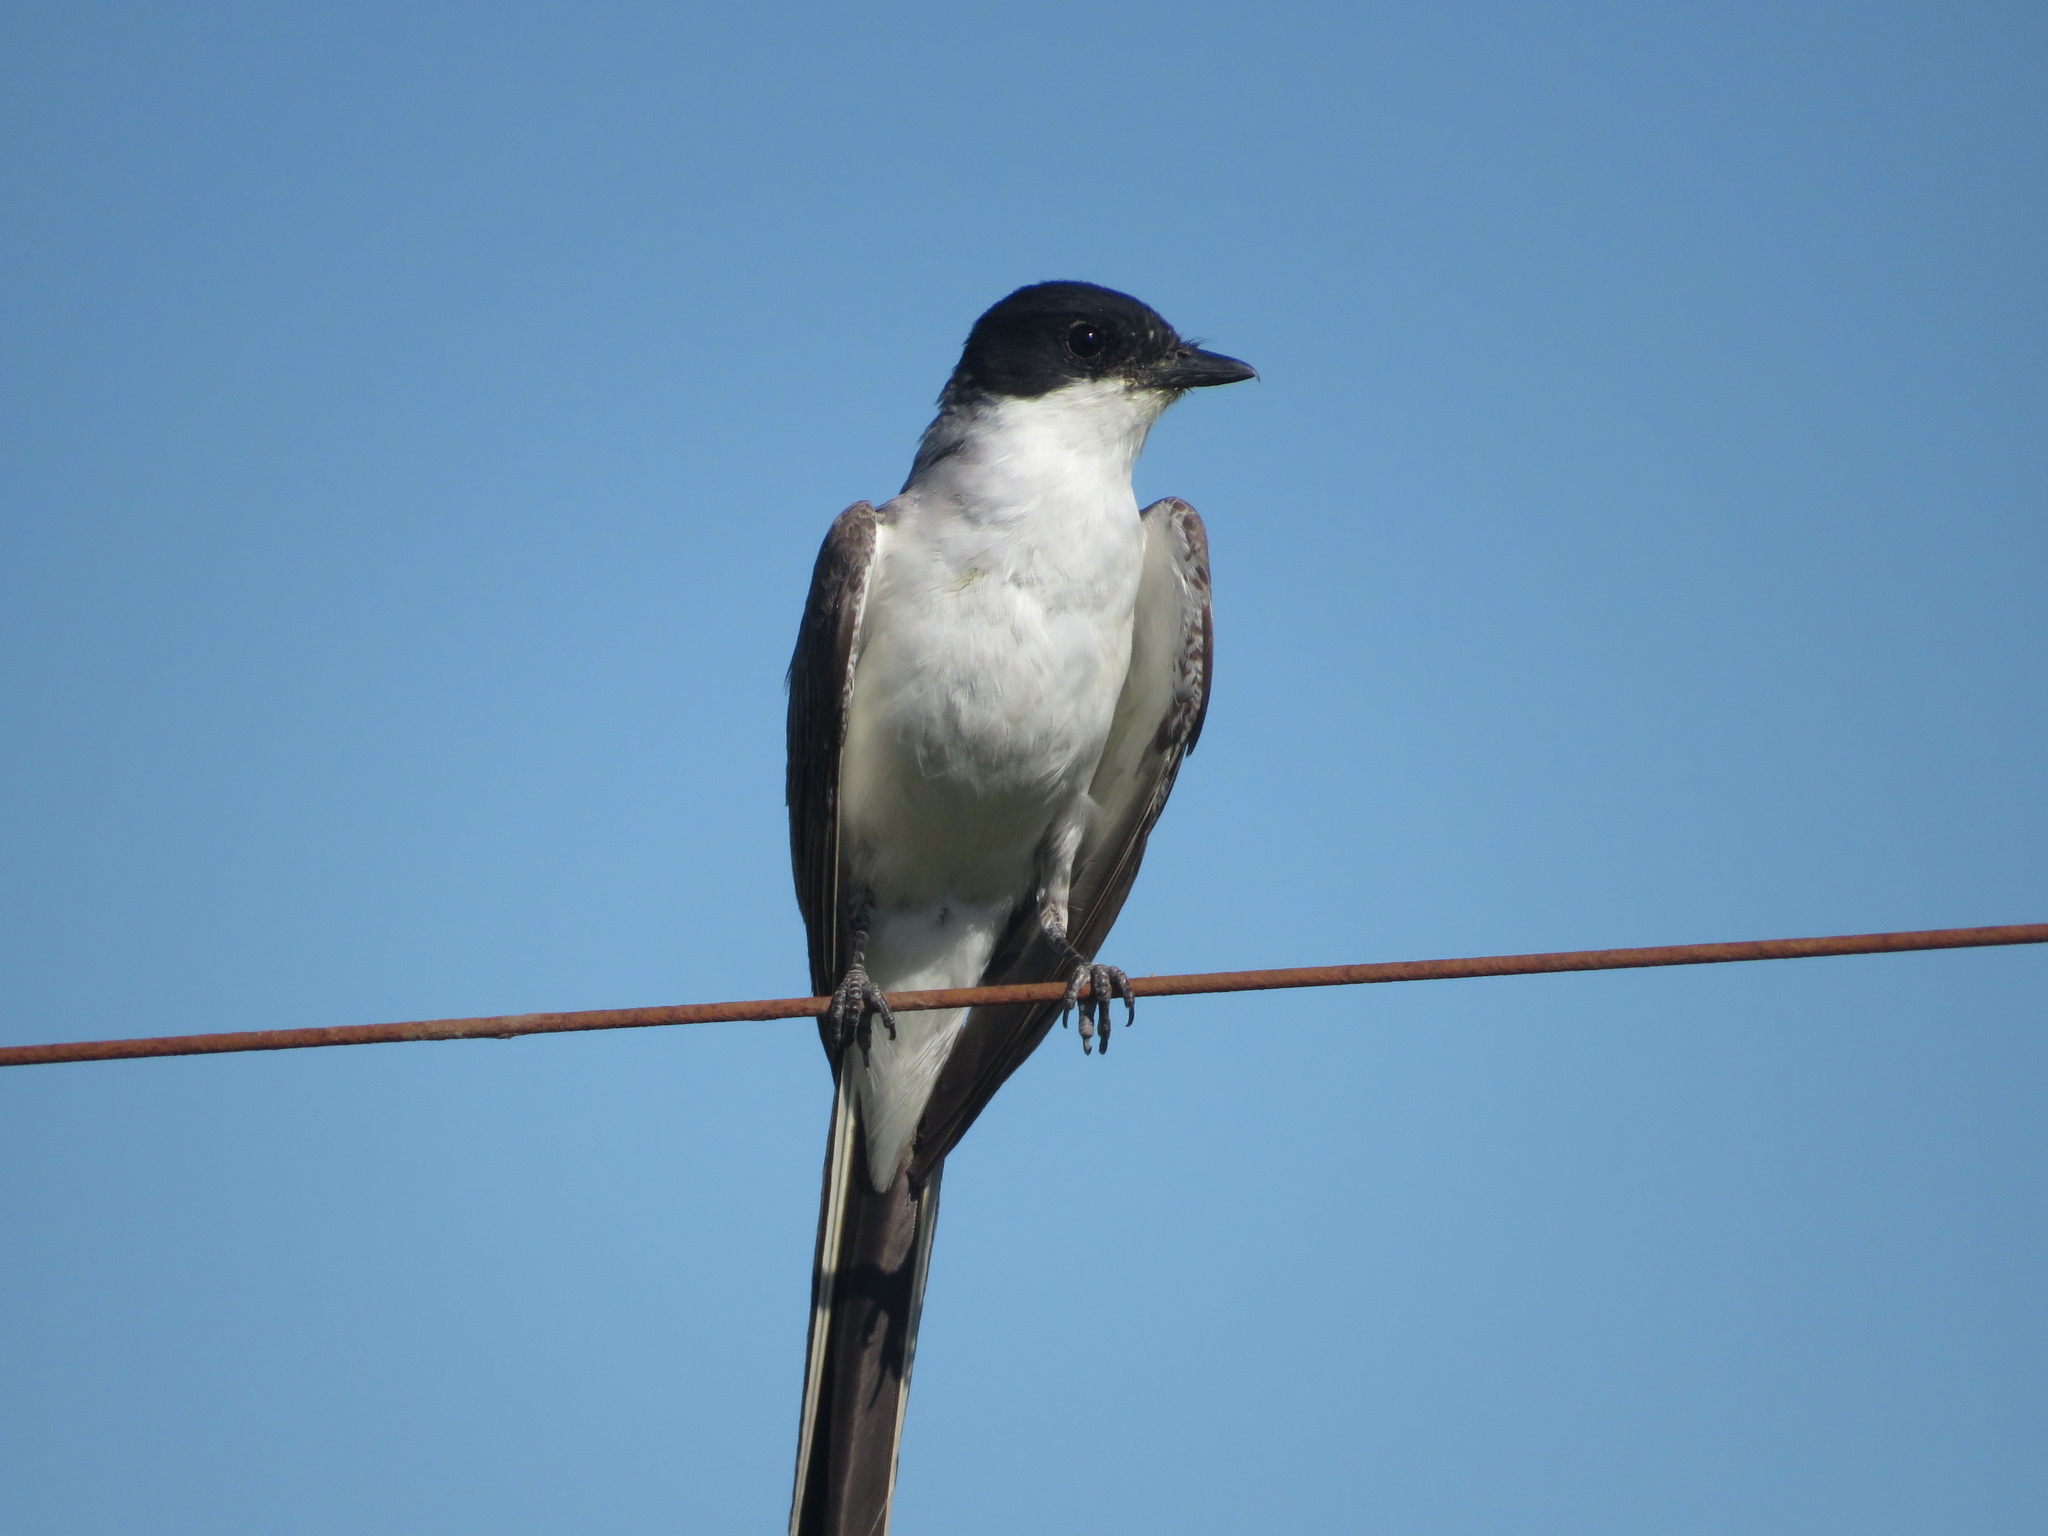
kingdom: Animalia
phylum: Chordata
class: Aves
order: Passeriformes
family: Tyrannidae
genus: Tyrannus
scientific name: Tyrannus savana
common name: Fork-tailed flycatcher
